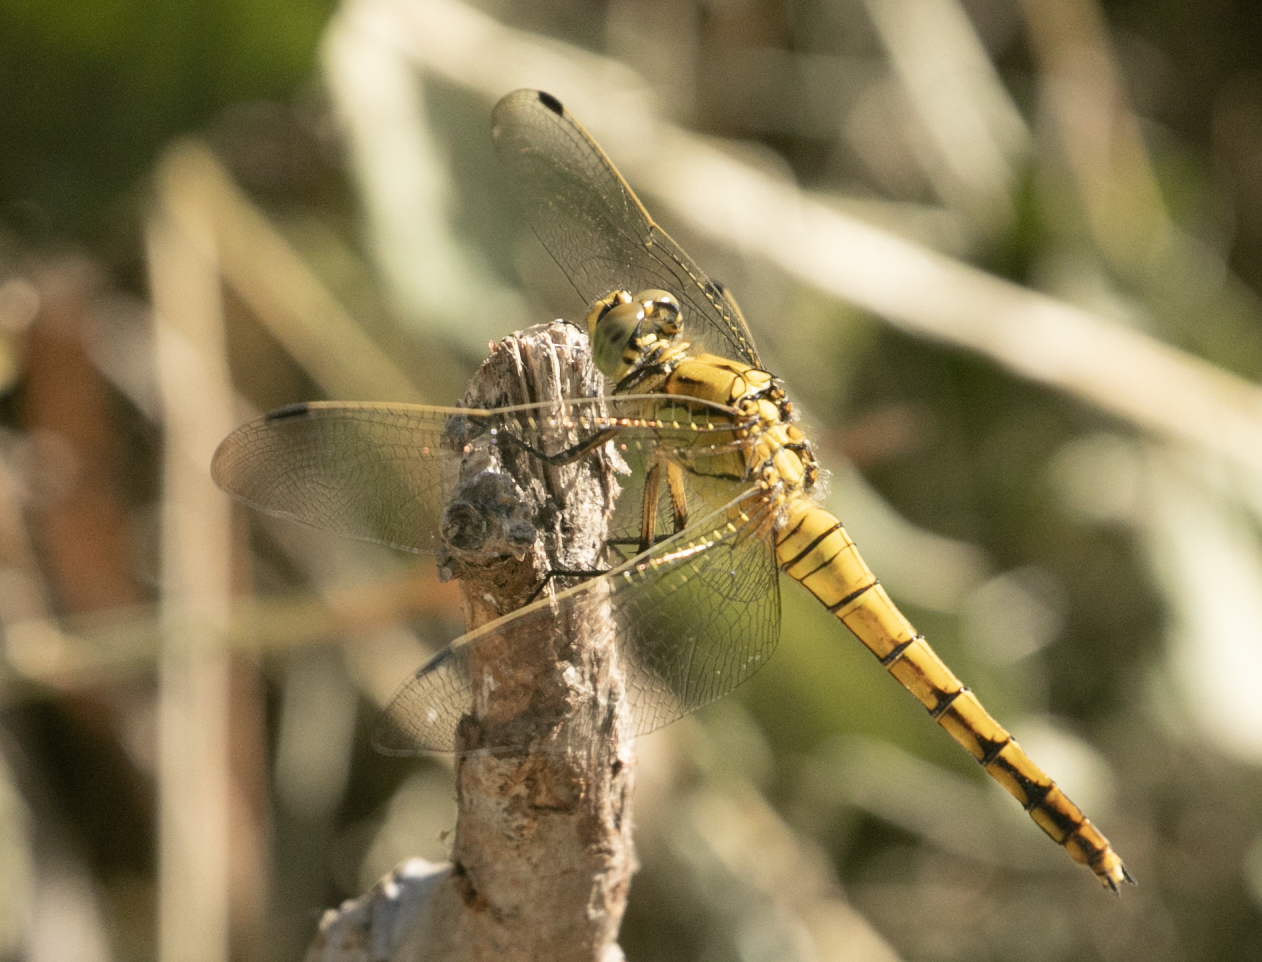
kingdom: Animalia
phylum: Arthropoda
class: Insecta
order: Odonata
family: Libellulidae
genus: Orthetrum
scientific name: Orthetrum cancellatum
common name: Black-tailed skimmer
